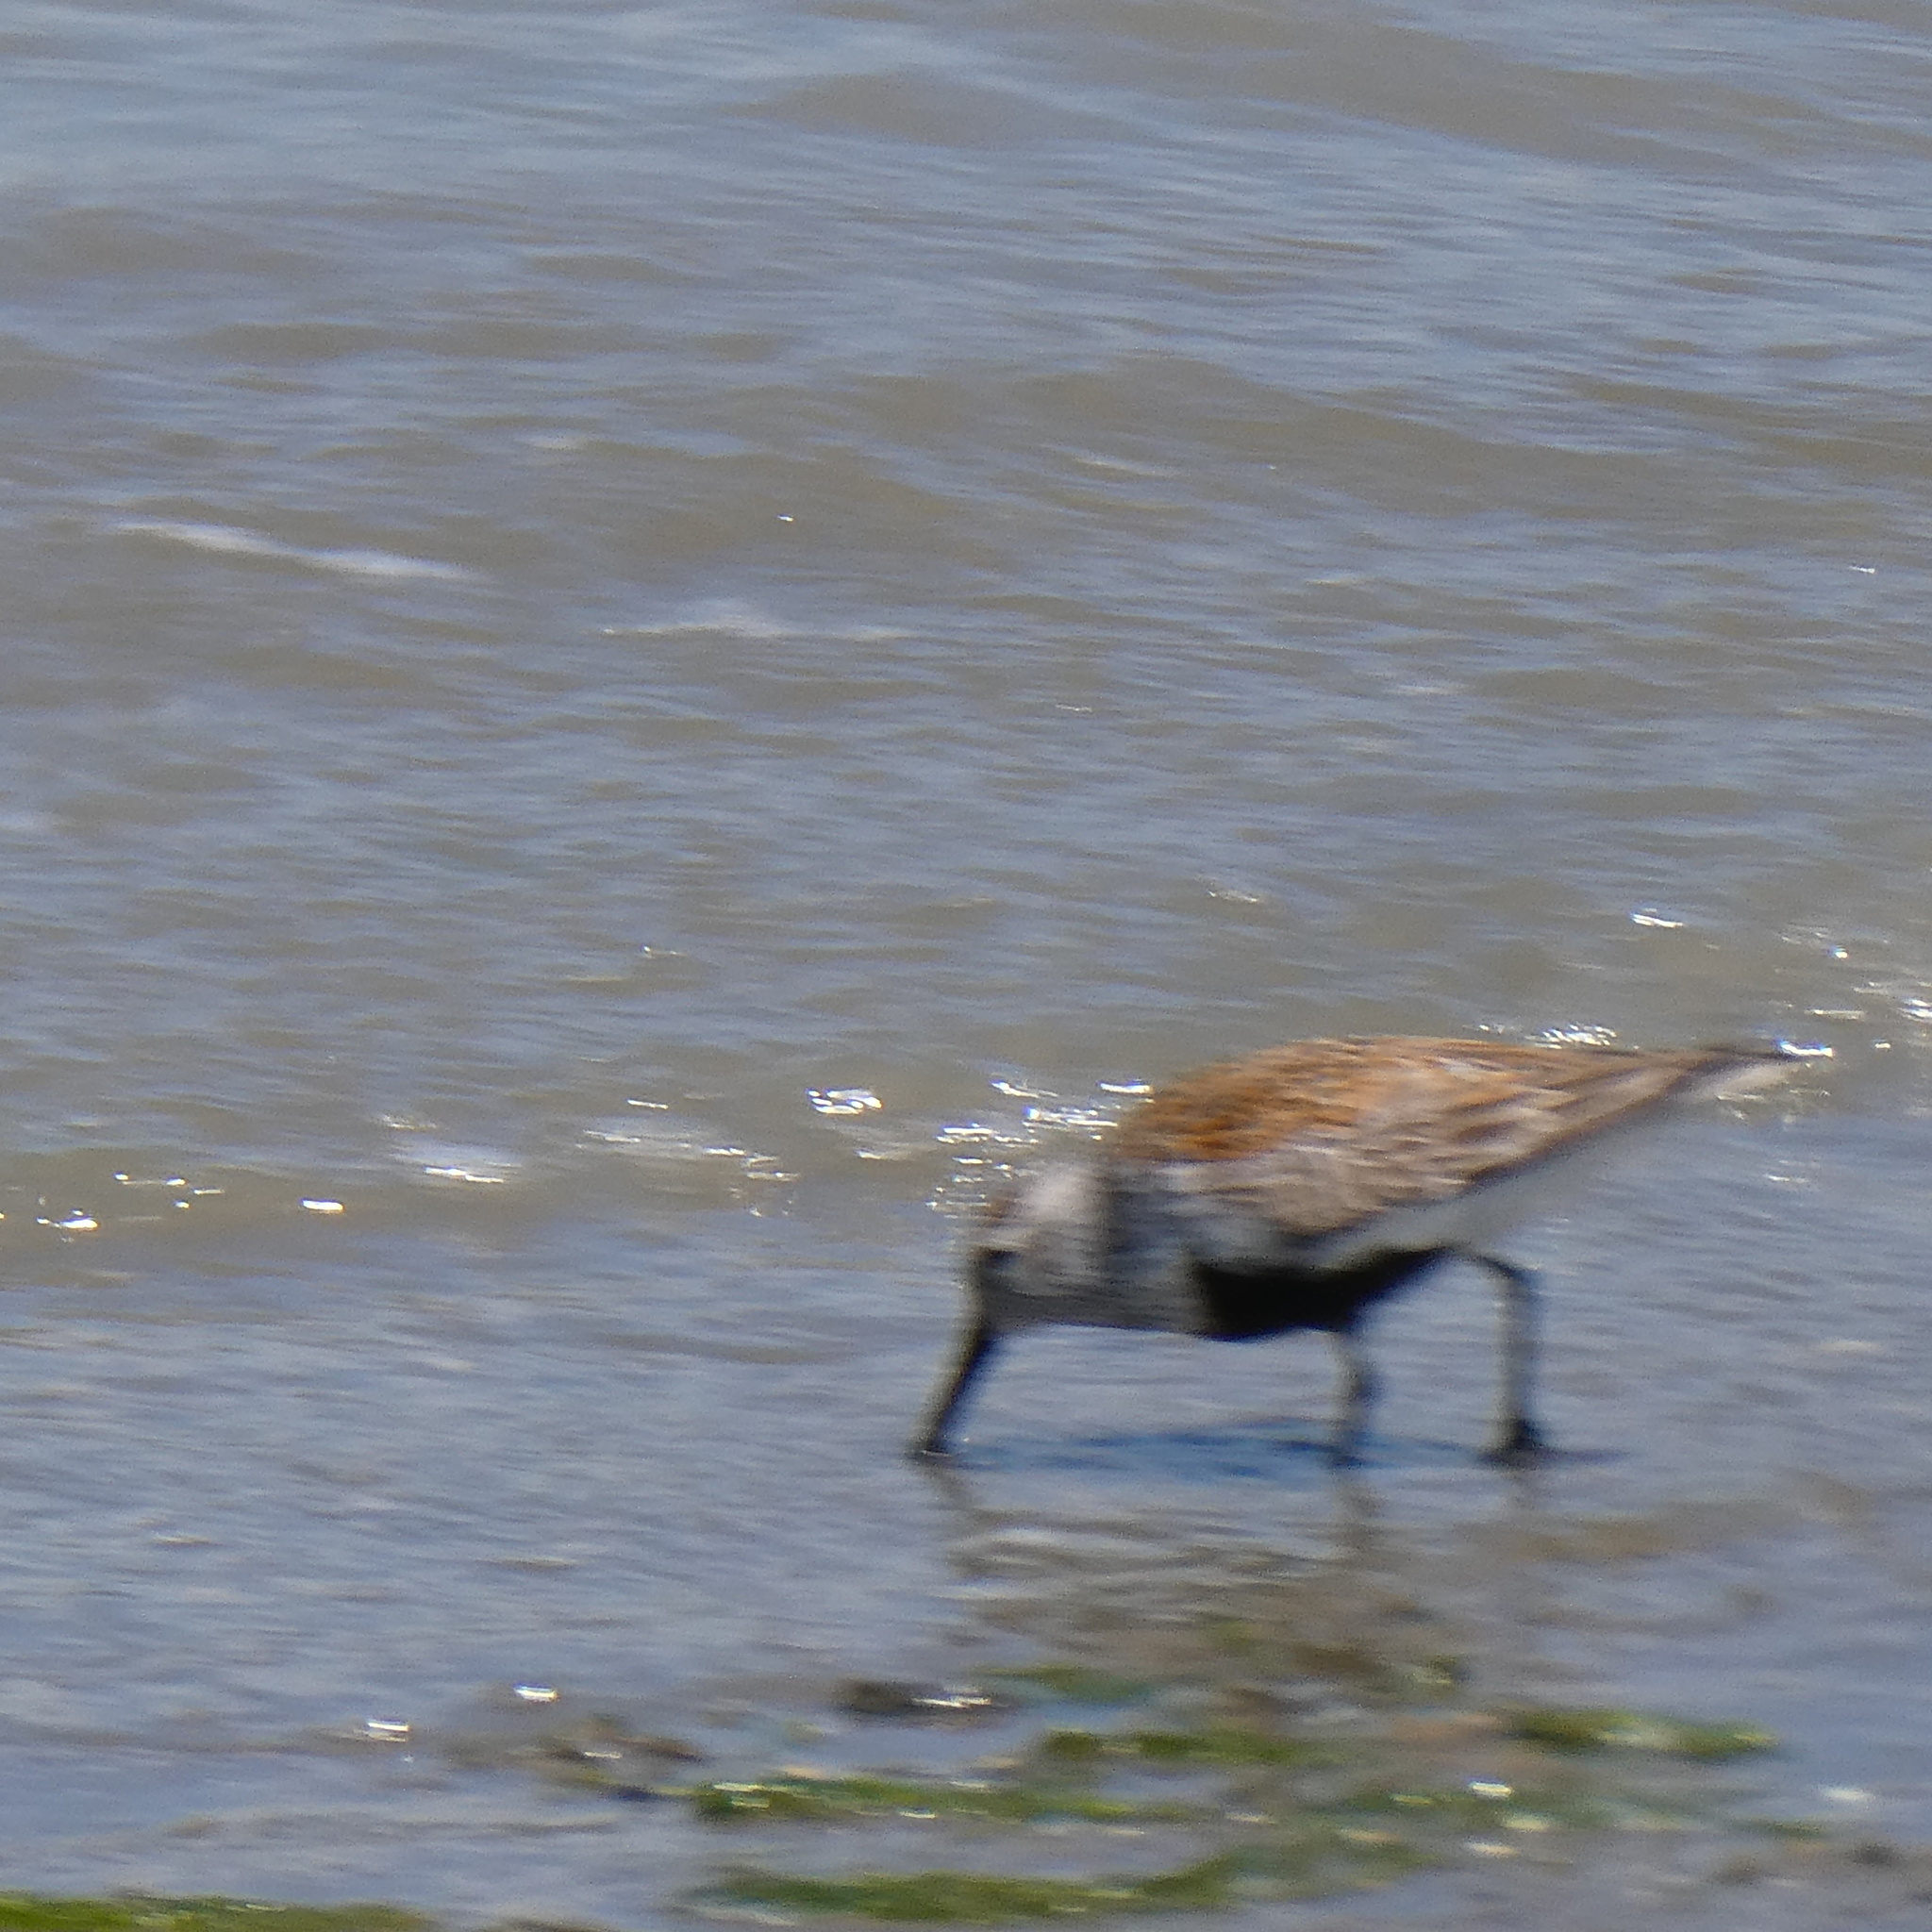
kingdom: Animalia
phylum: Chordata
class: Aves
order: Charadriiformes
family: Scolopacidae
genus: Calidris
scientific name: Calidris alpina
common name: Dunlin
